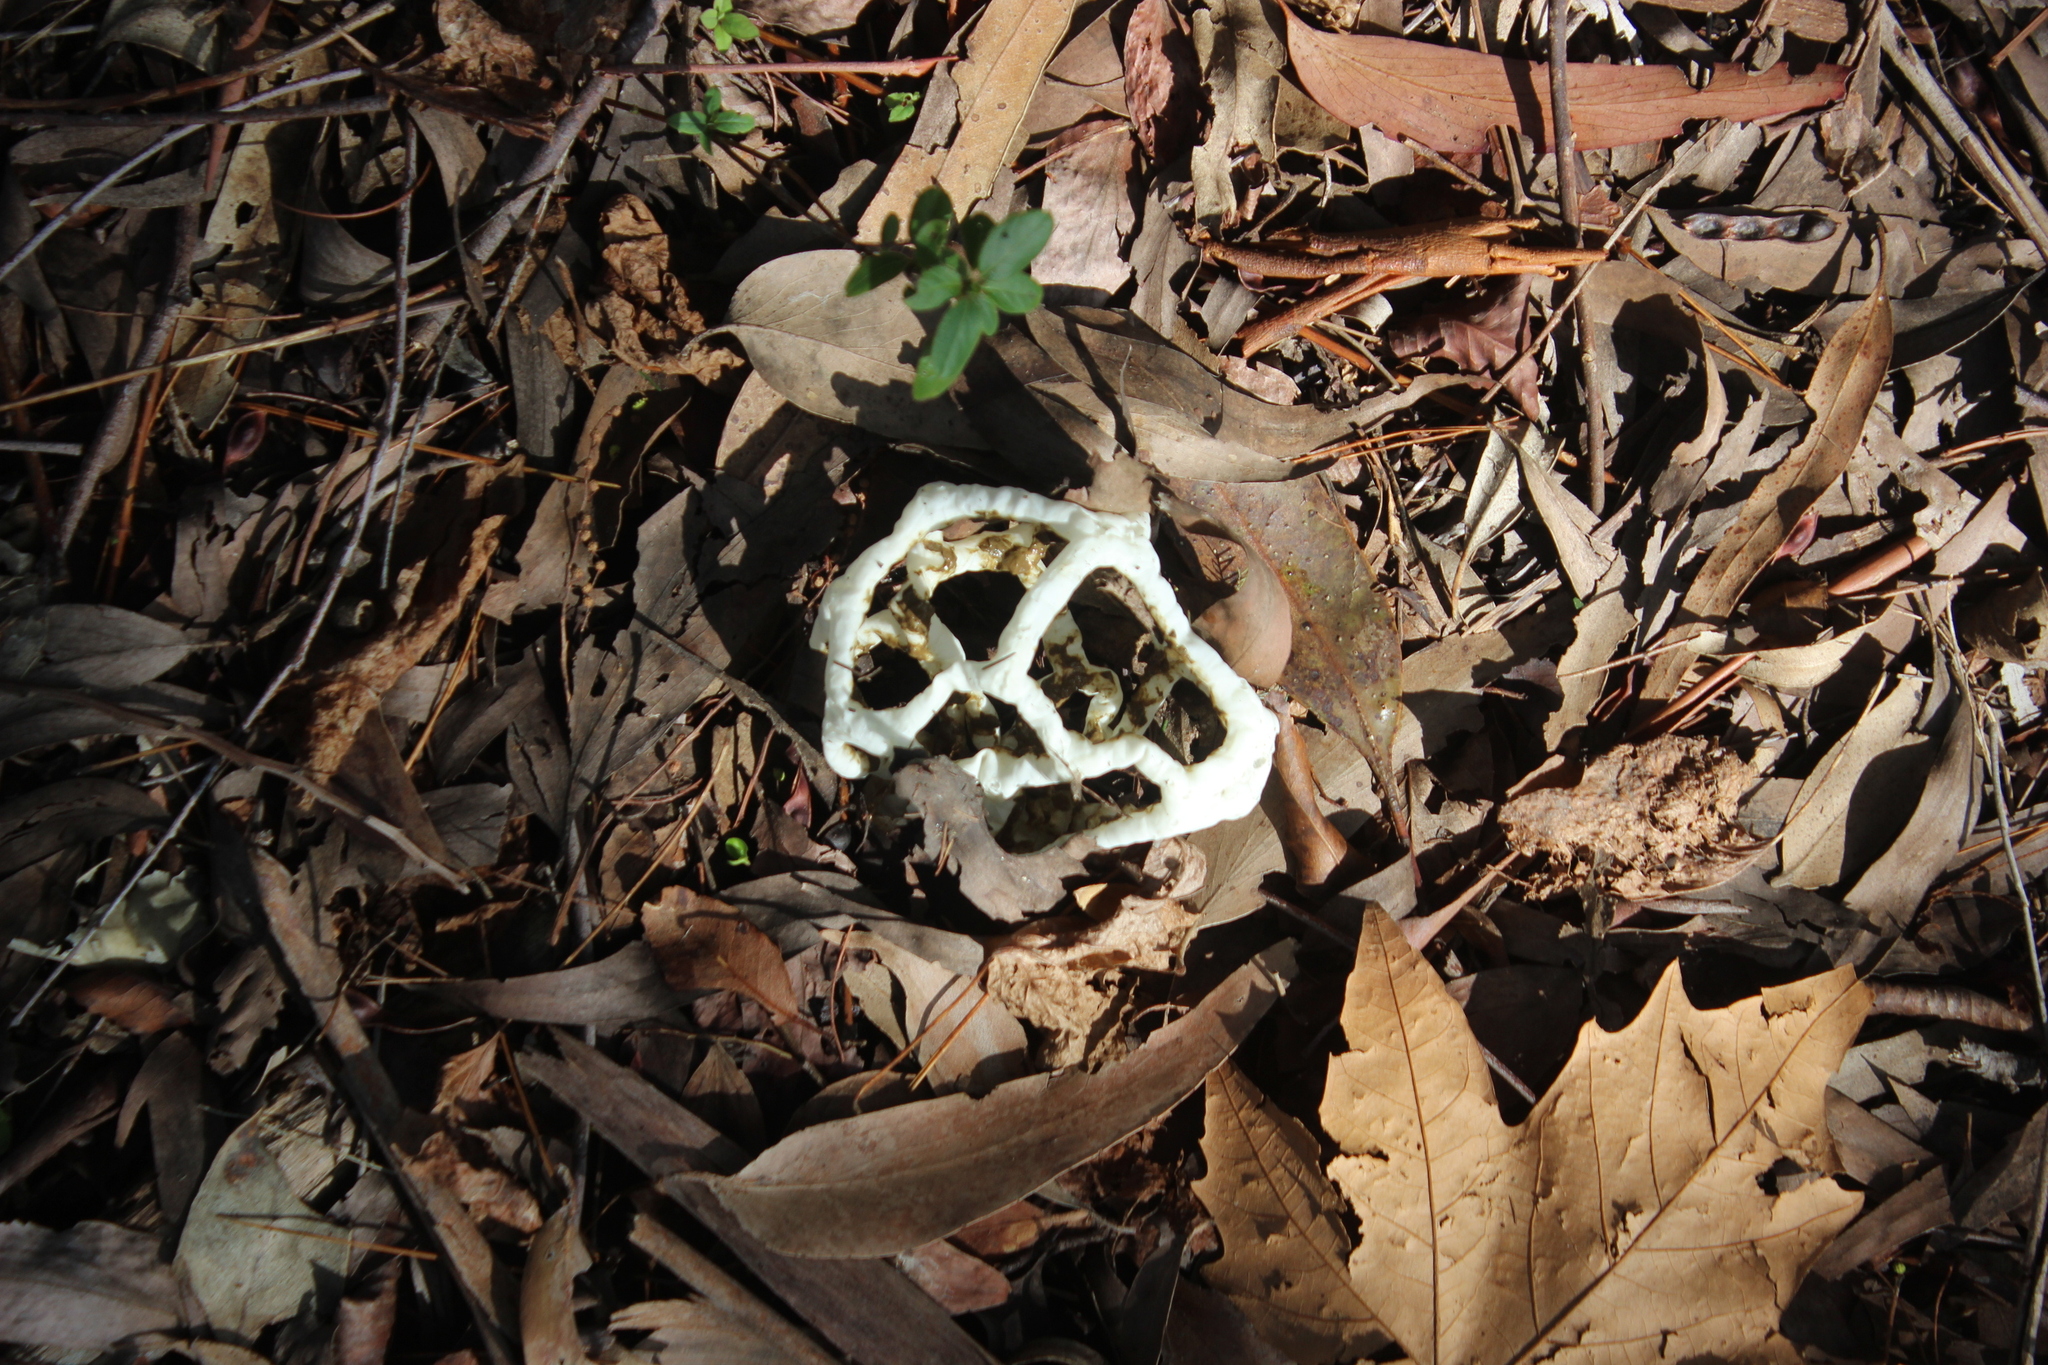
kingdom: Fungi
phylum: Basidiomycota
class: Agaricomycetes
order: Phallales
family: Phallaceae
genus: Ileodictyon
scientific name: Ileodictyon cibarium
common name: Basket fungus
